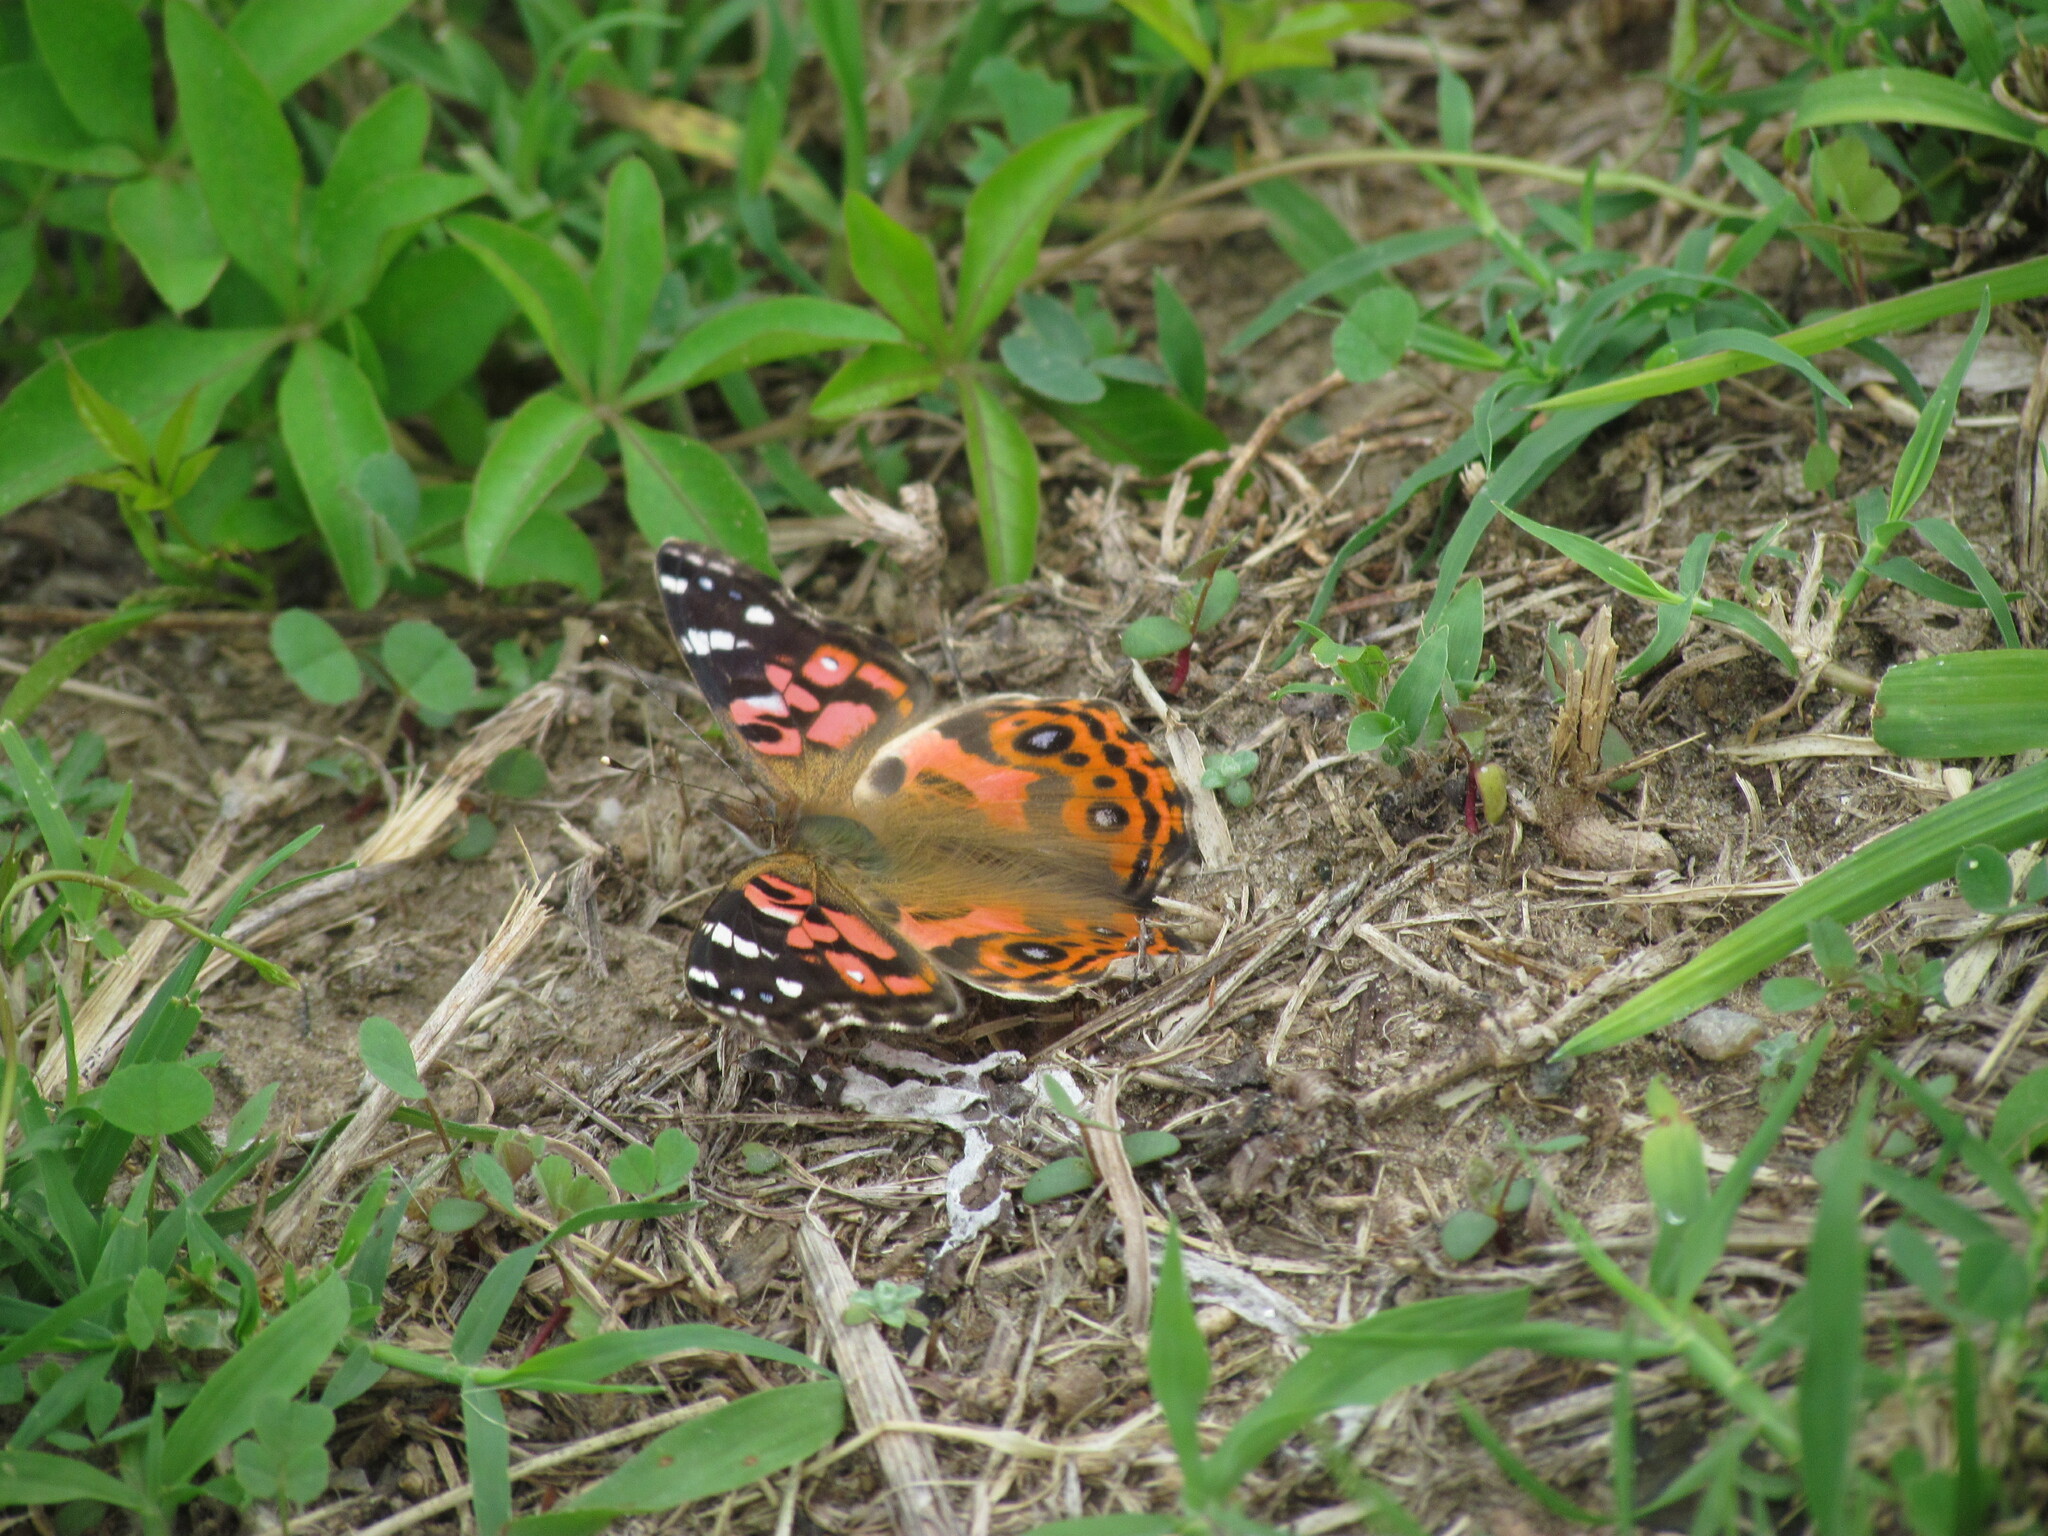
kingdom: Animalia
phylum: Arthropoda
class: Insecta
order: Lepidoptera
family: Nymphalidae
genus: Vanessa
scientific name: Vanessa braziliensis
